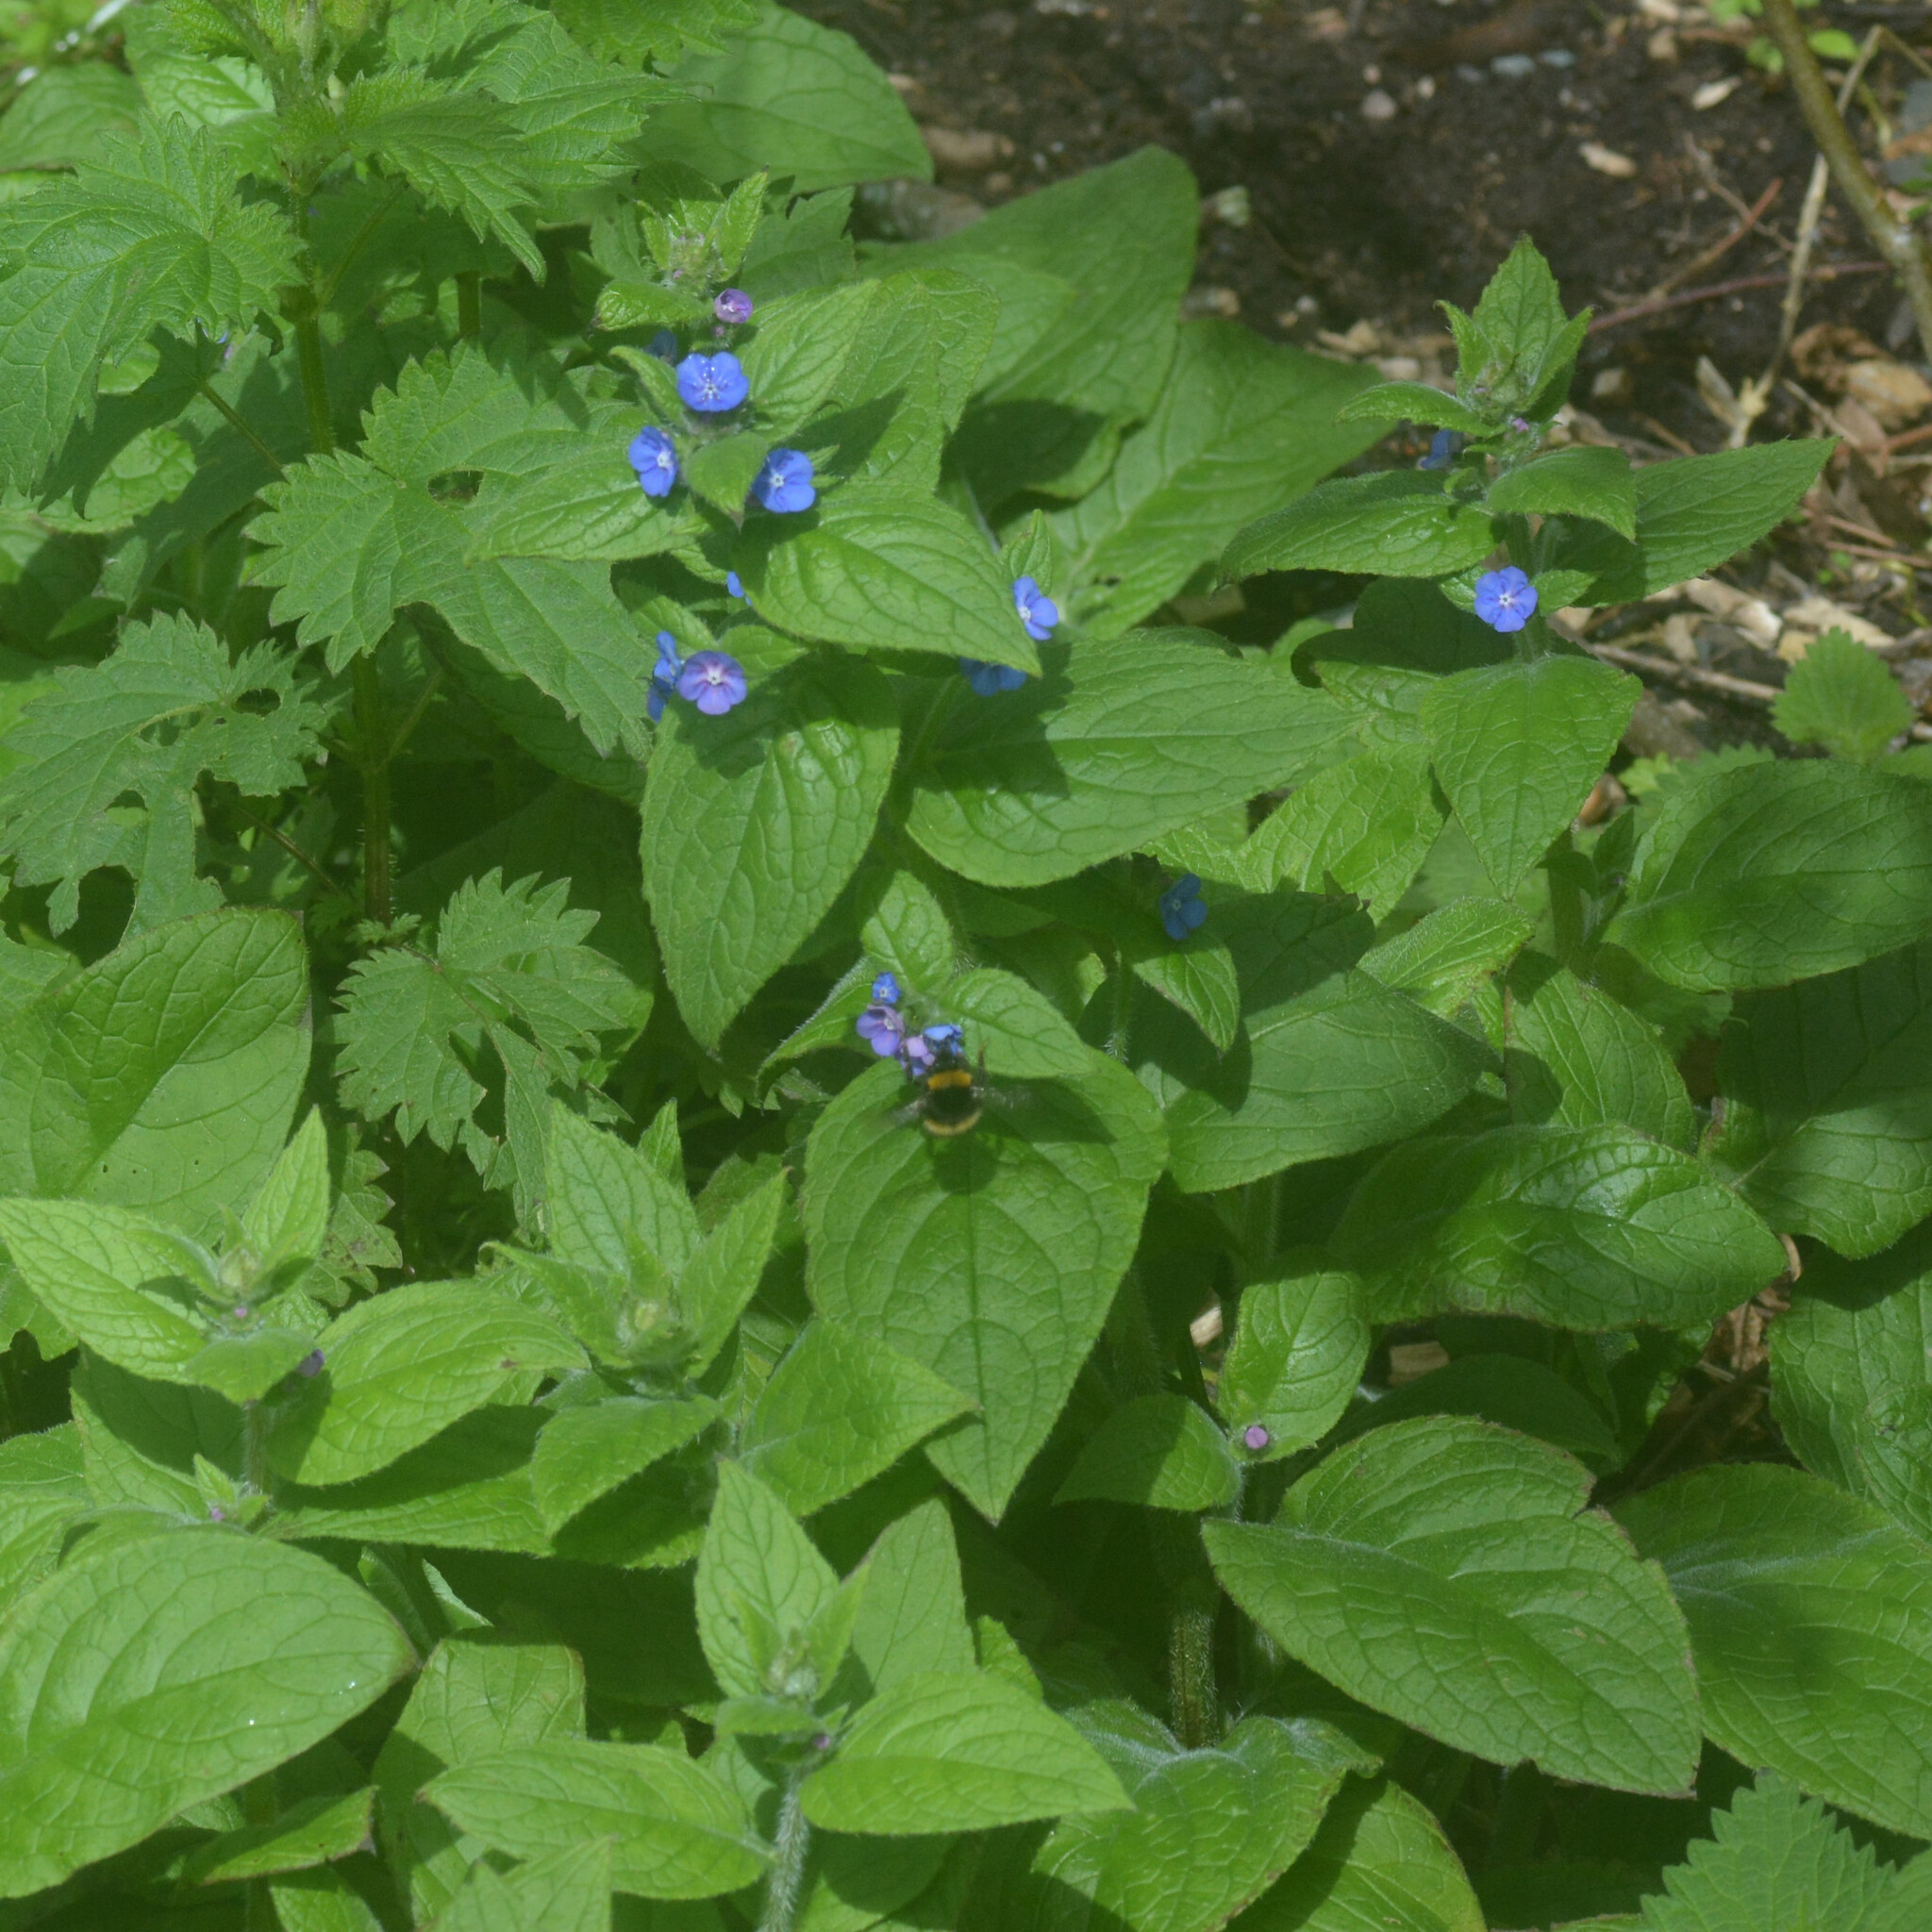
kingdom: Plantae
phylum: Tracheophyta
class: Magnoliopsida
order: Boraginales
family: Boraginaceae
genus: Pentaglottis
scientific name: Pentaglottis sempervirens
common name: Green alkanet
